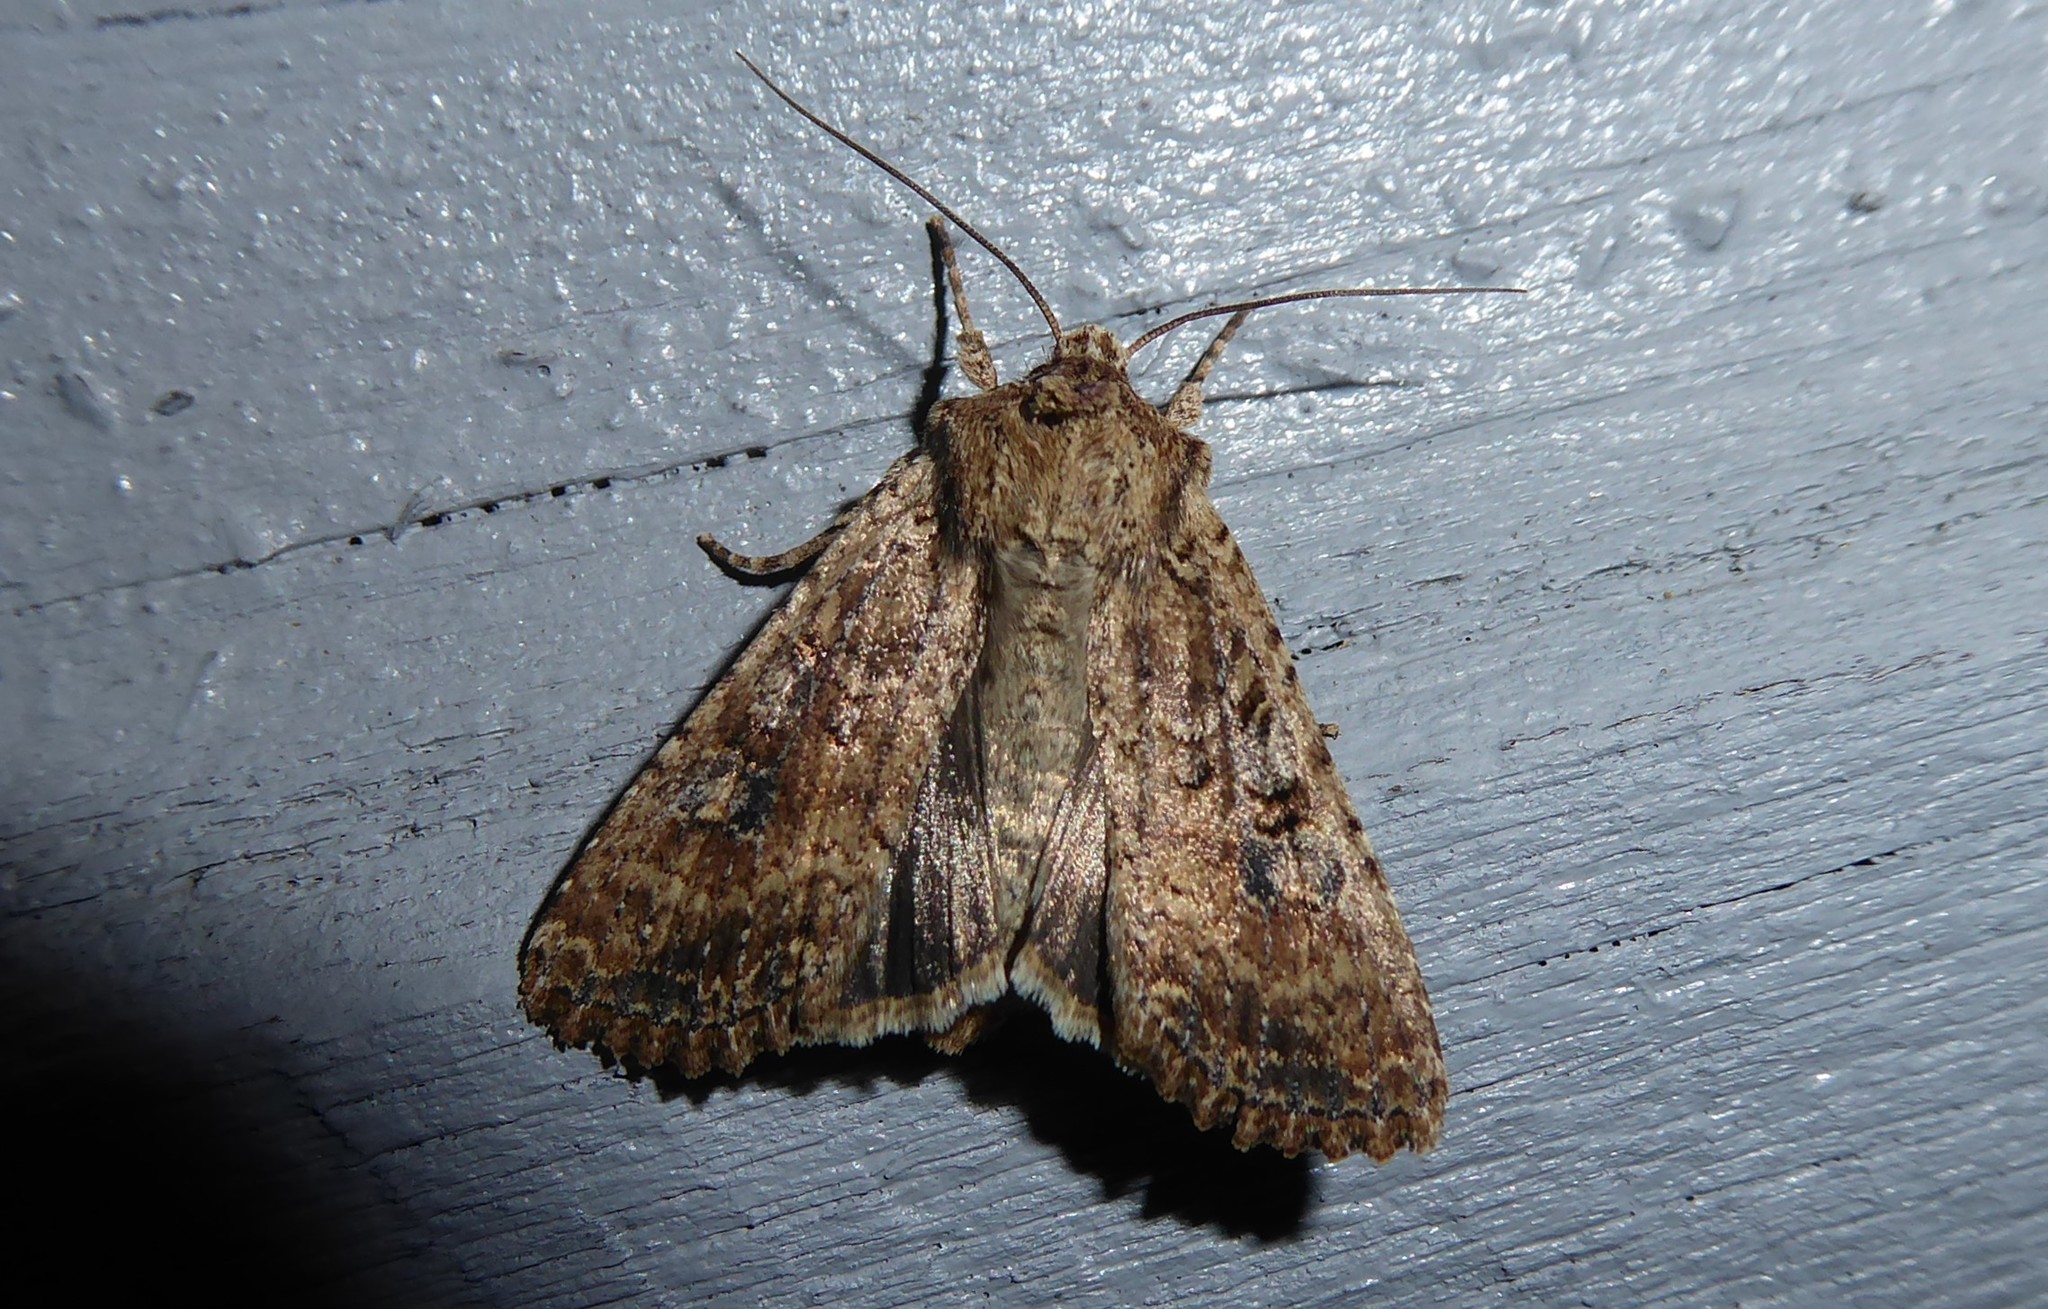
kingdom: Animalia
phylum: Arthropoda
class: Insecta
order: Lepidoptera
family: Noctuidae
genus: Ichneutica
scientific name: Ichneutica morosa
